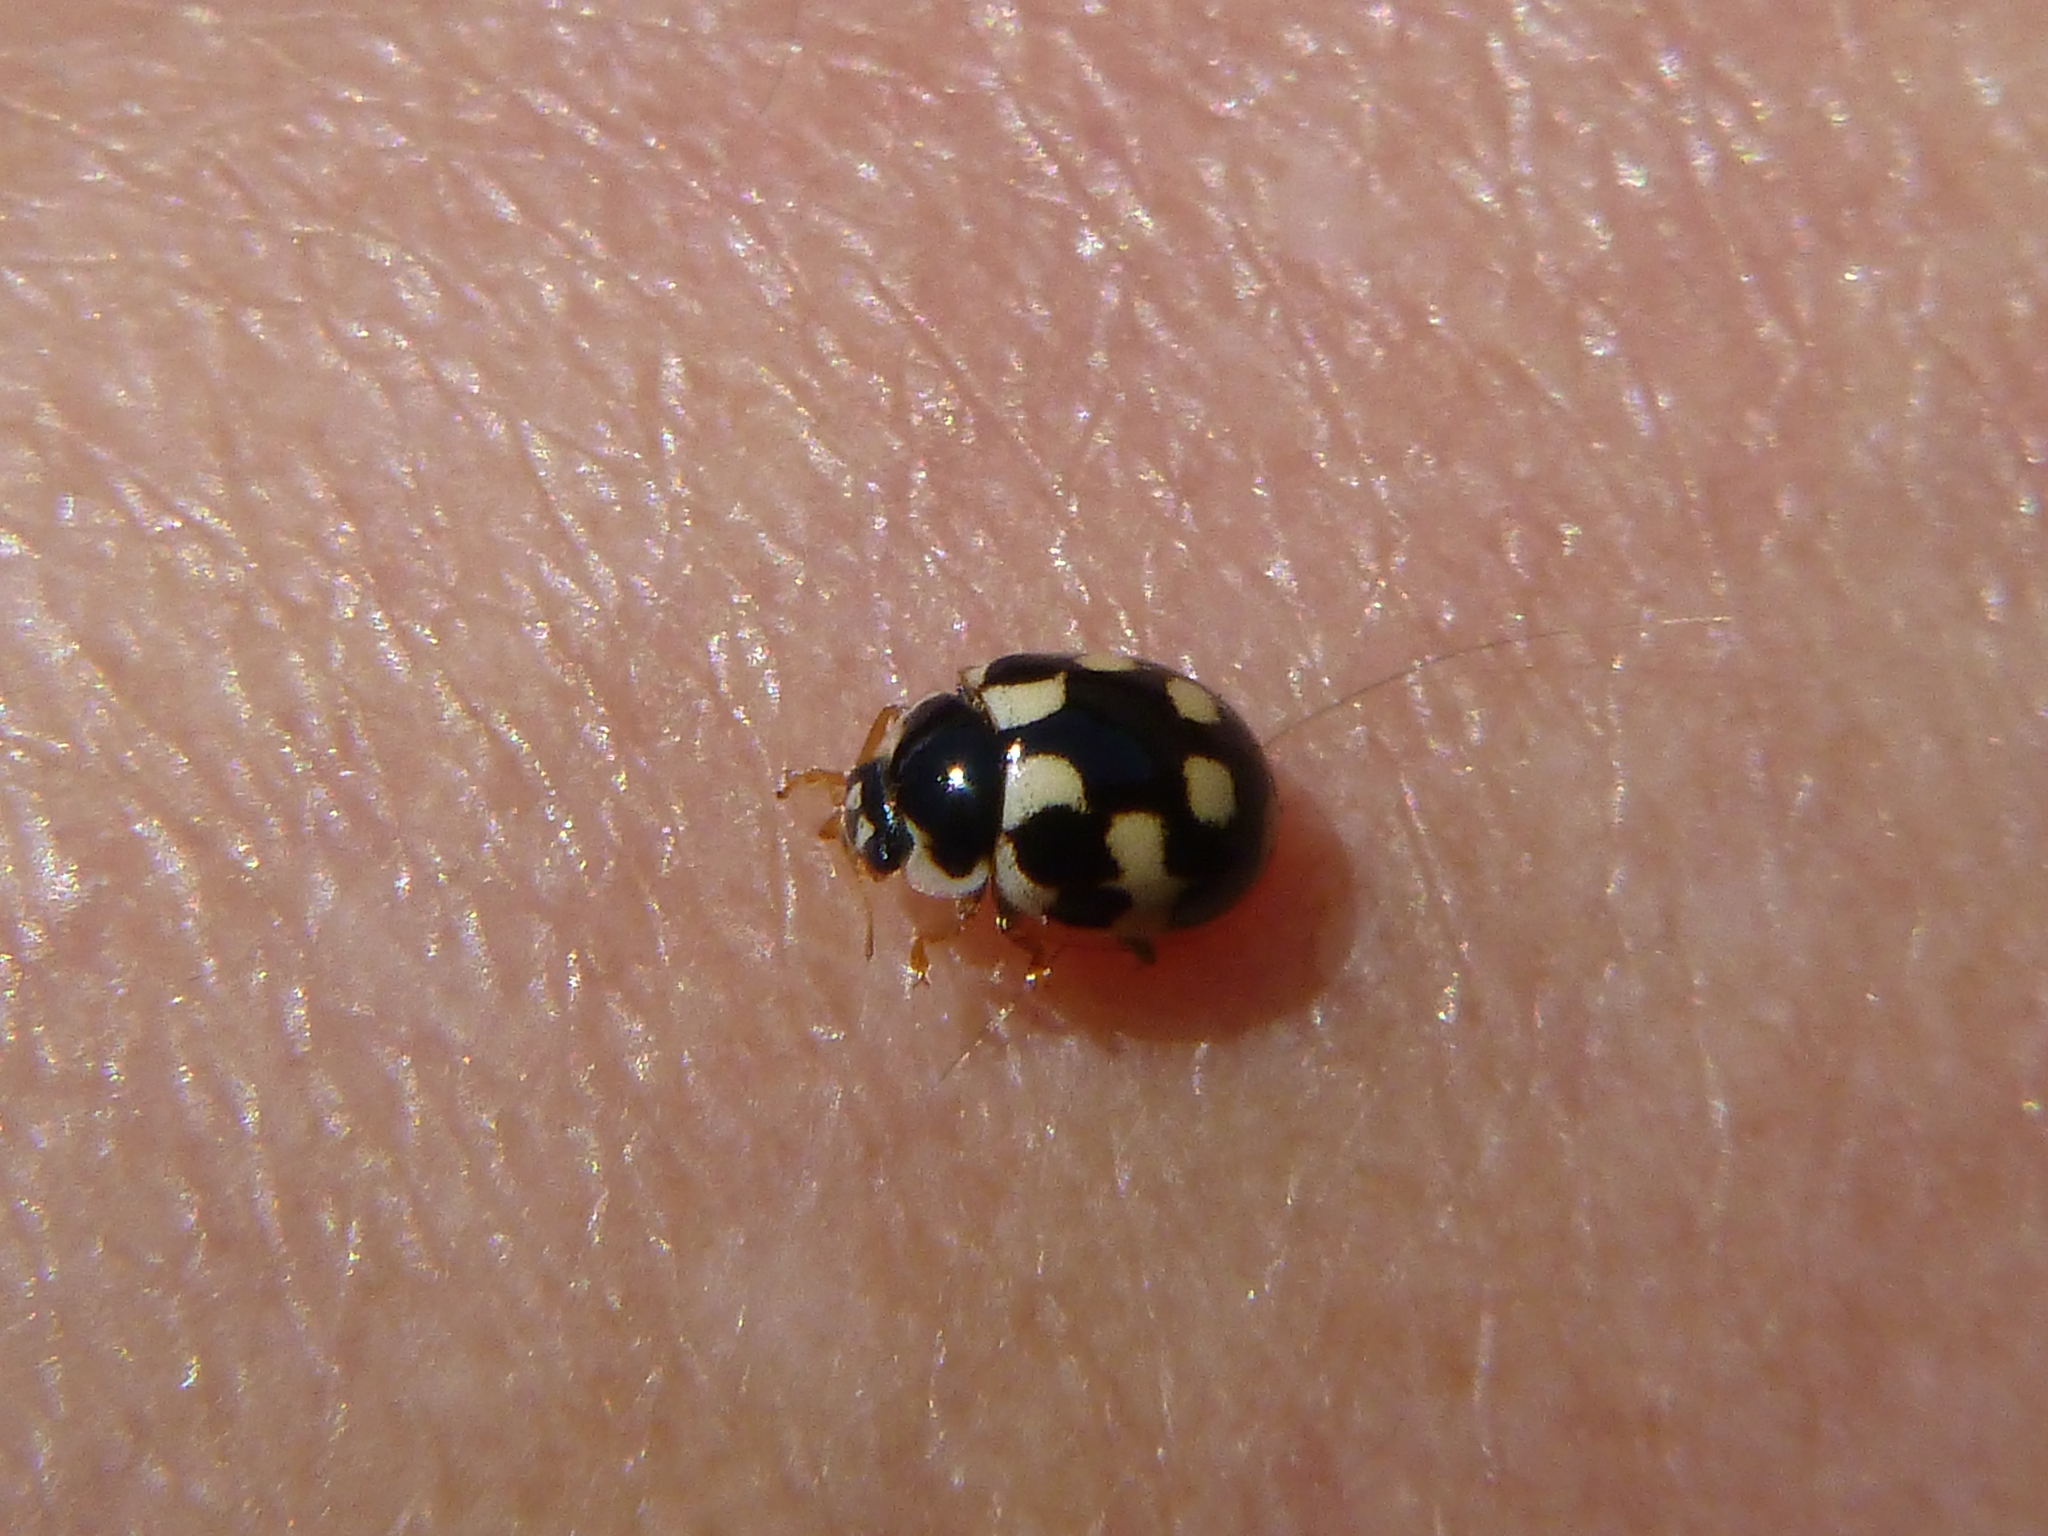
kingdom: Animalia
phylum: Arthropoda
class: Insecta
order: Coleoptera
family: Coccinellidae
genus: Propylaea
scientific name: Propylaea quatuordecimpunctata
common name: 14-spotted ladybird beetle
